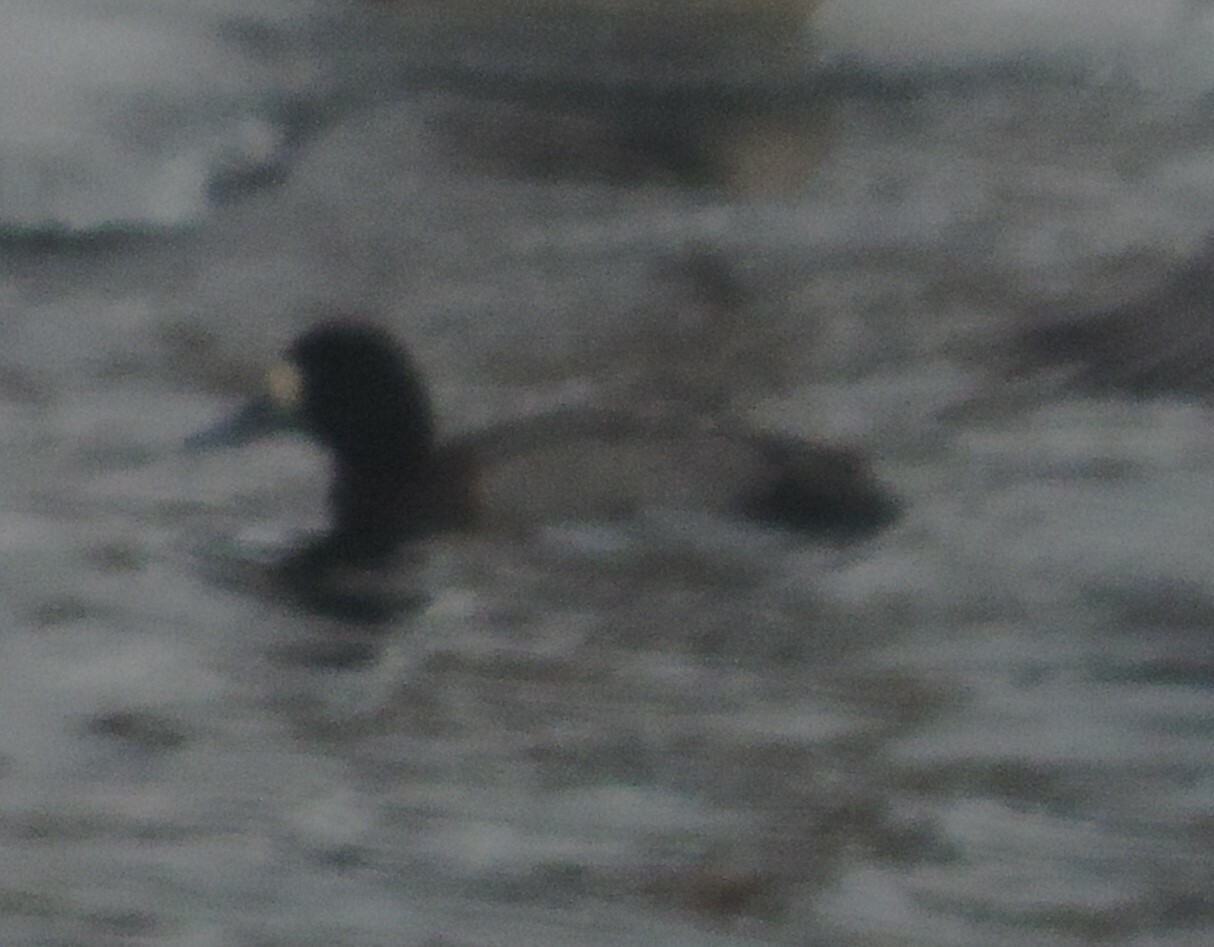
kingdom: Animalia
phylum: Chordata
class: Aves
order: Anseriformes
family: Anatidae
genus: Aythya
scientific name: Aythya affinis
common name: Lesser scaup
